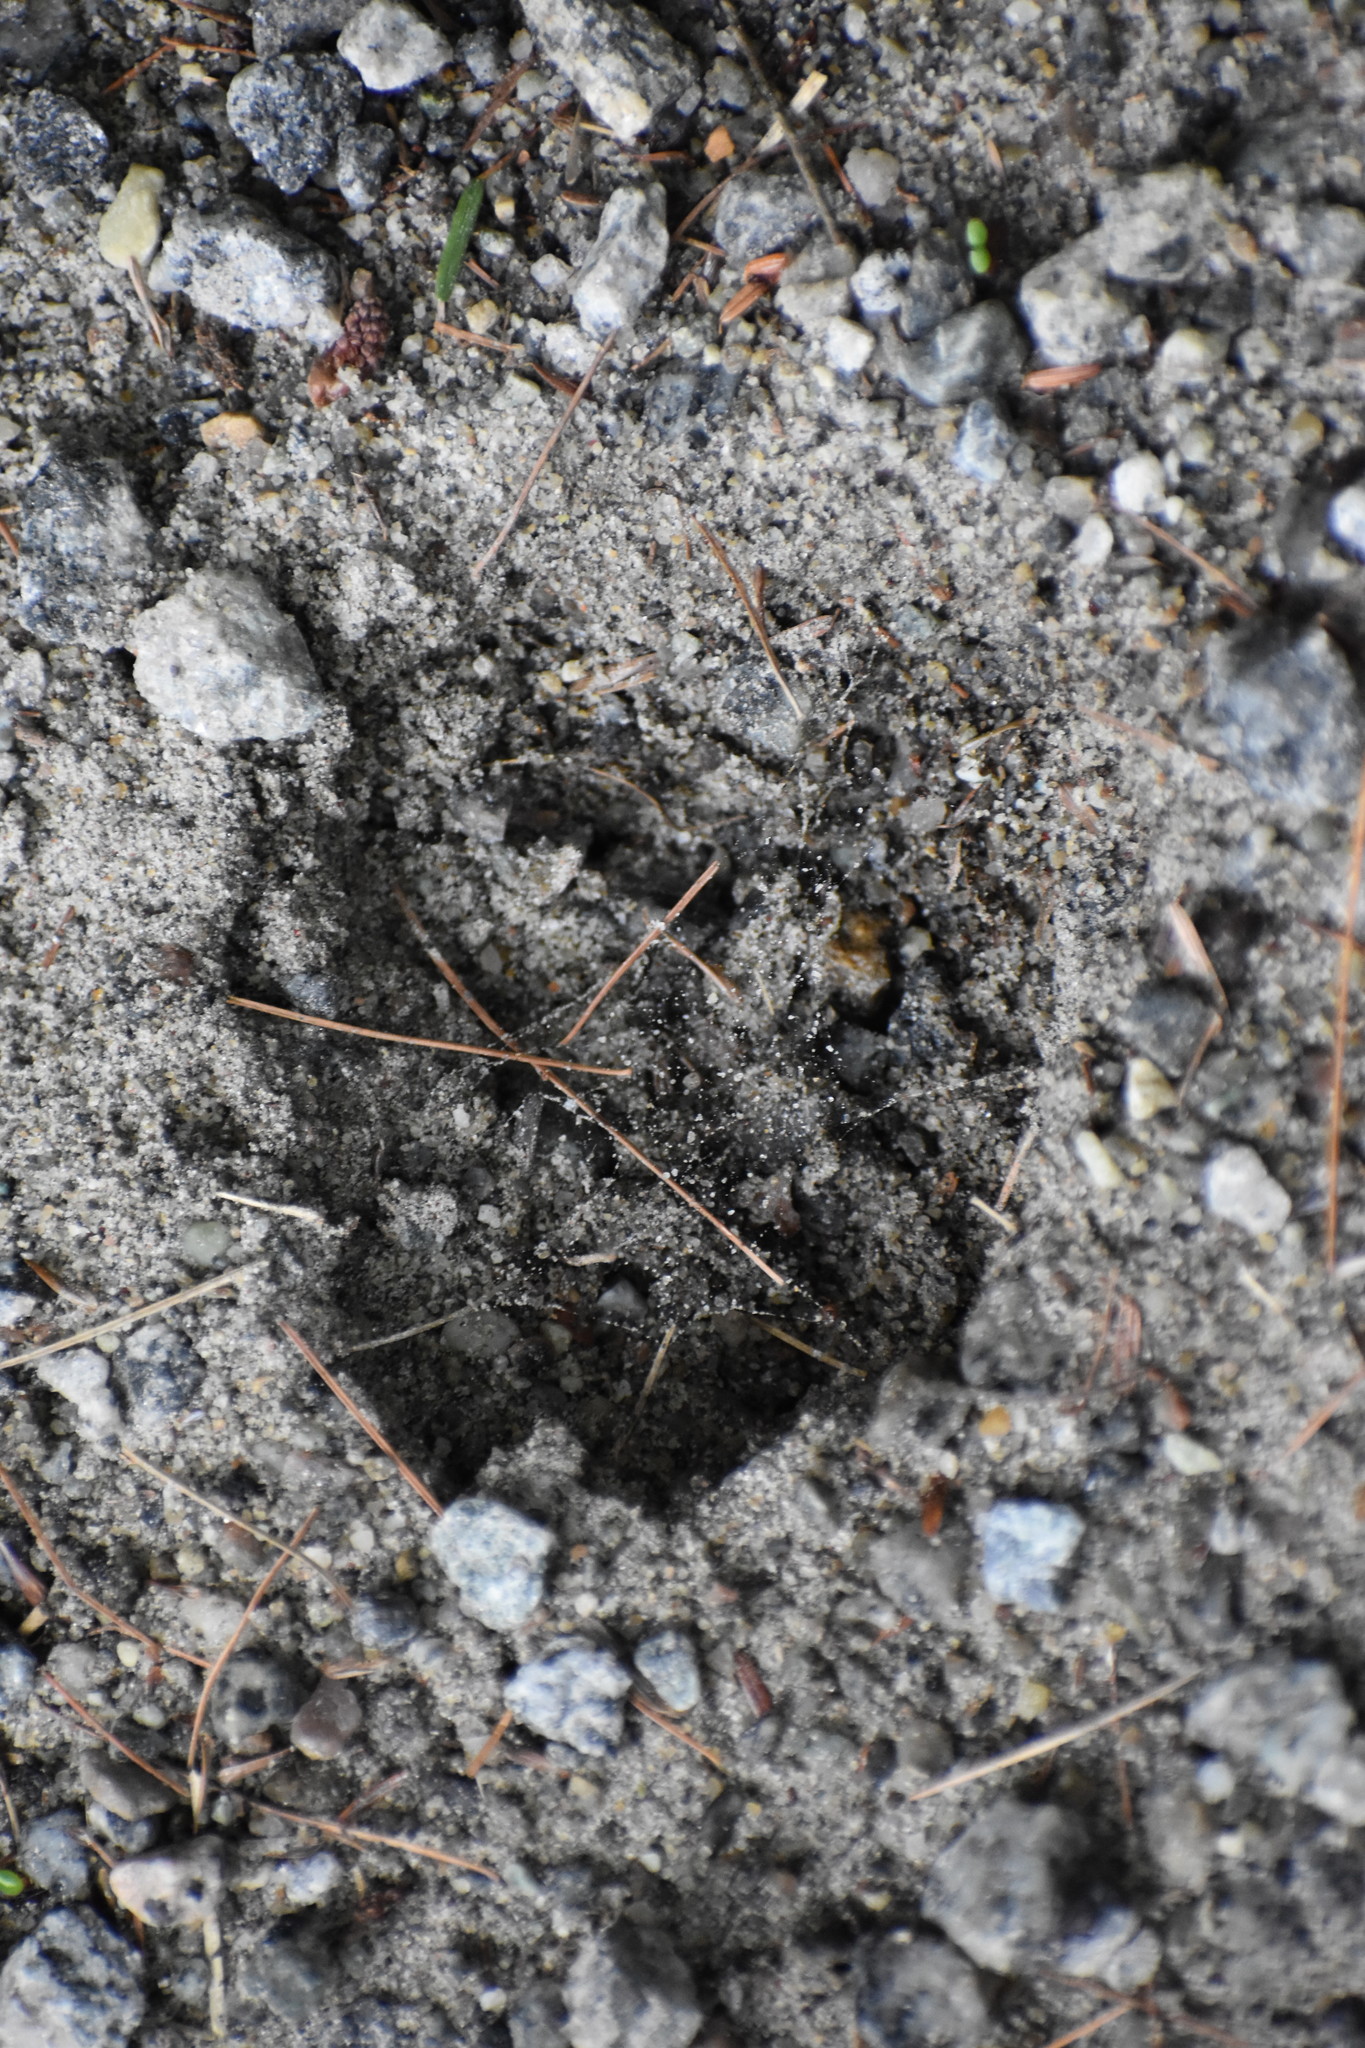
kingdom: Animalia
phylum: Chordata
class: Mammalia
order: Artiodactyla
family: Cervidae
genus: Odocoileus
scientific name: Odocoileus virginianus
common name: White-tailed deer
